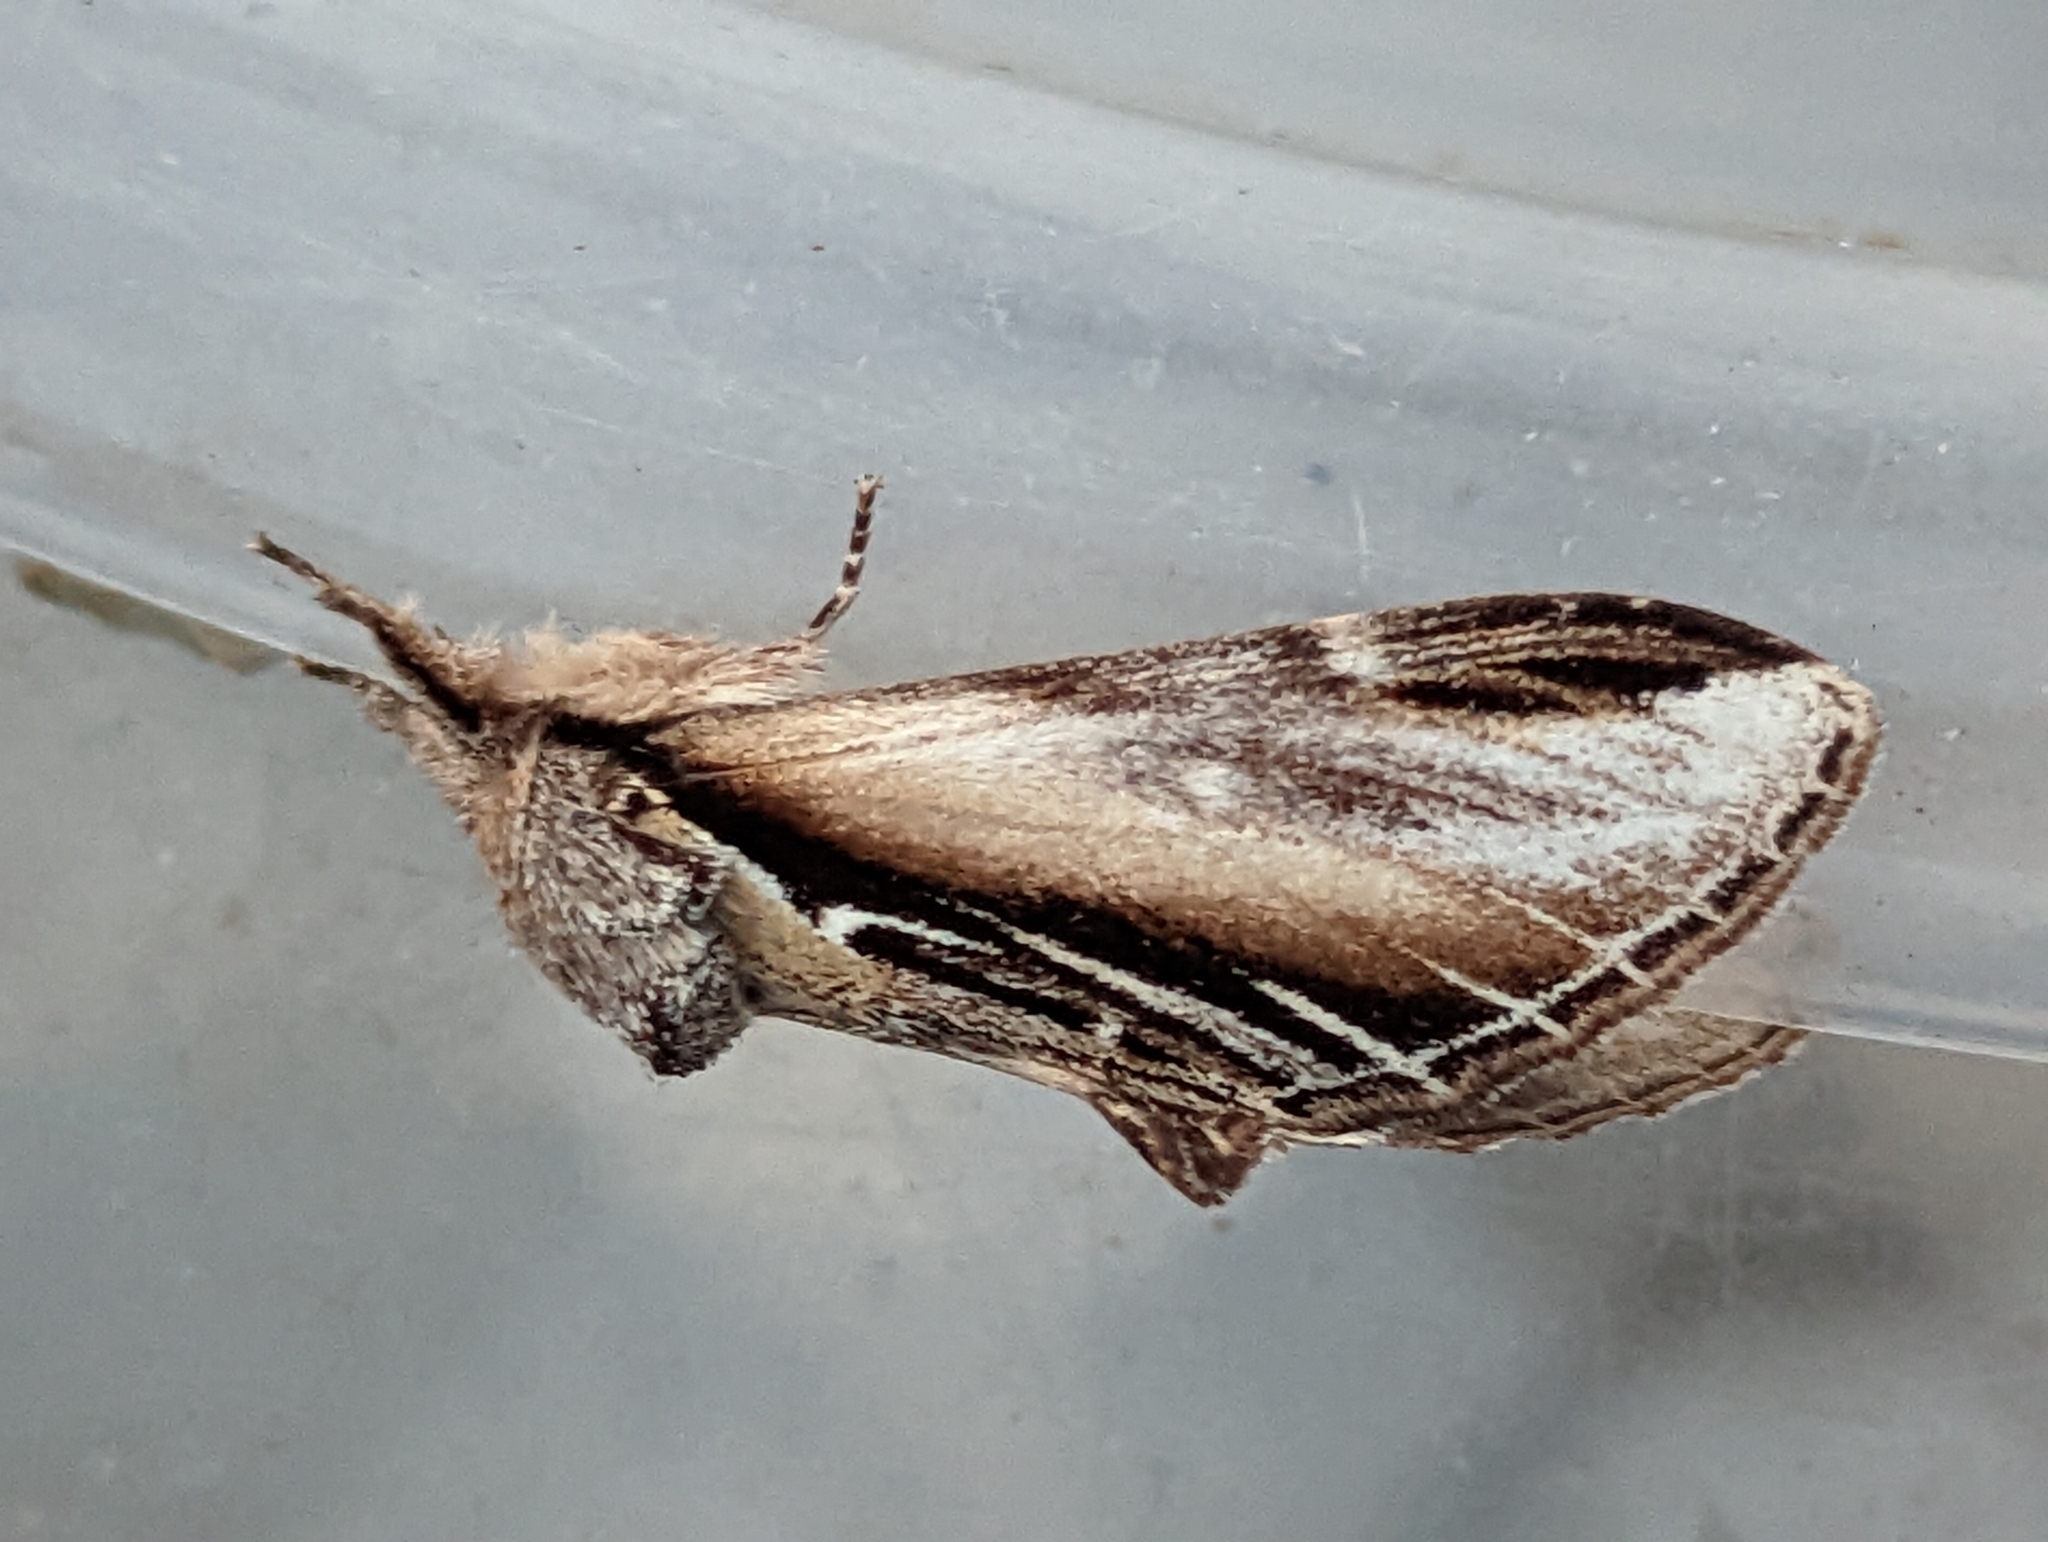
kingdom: Animalia
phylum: Arthropoda
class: Insecta
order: Lepidoptera
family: Notodontidae
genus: Pheosia
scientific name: Pheosia tremula
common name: Swallow prominent
